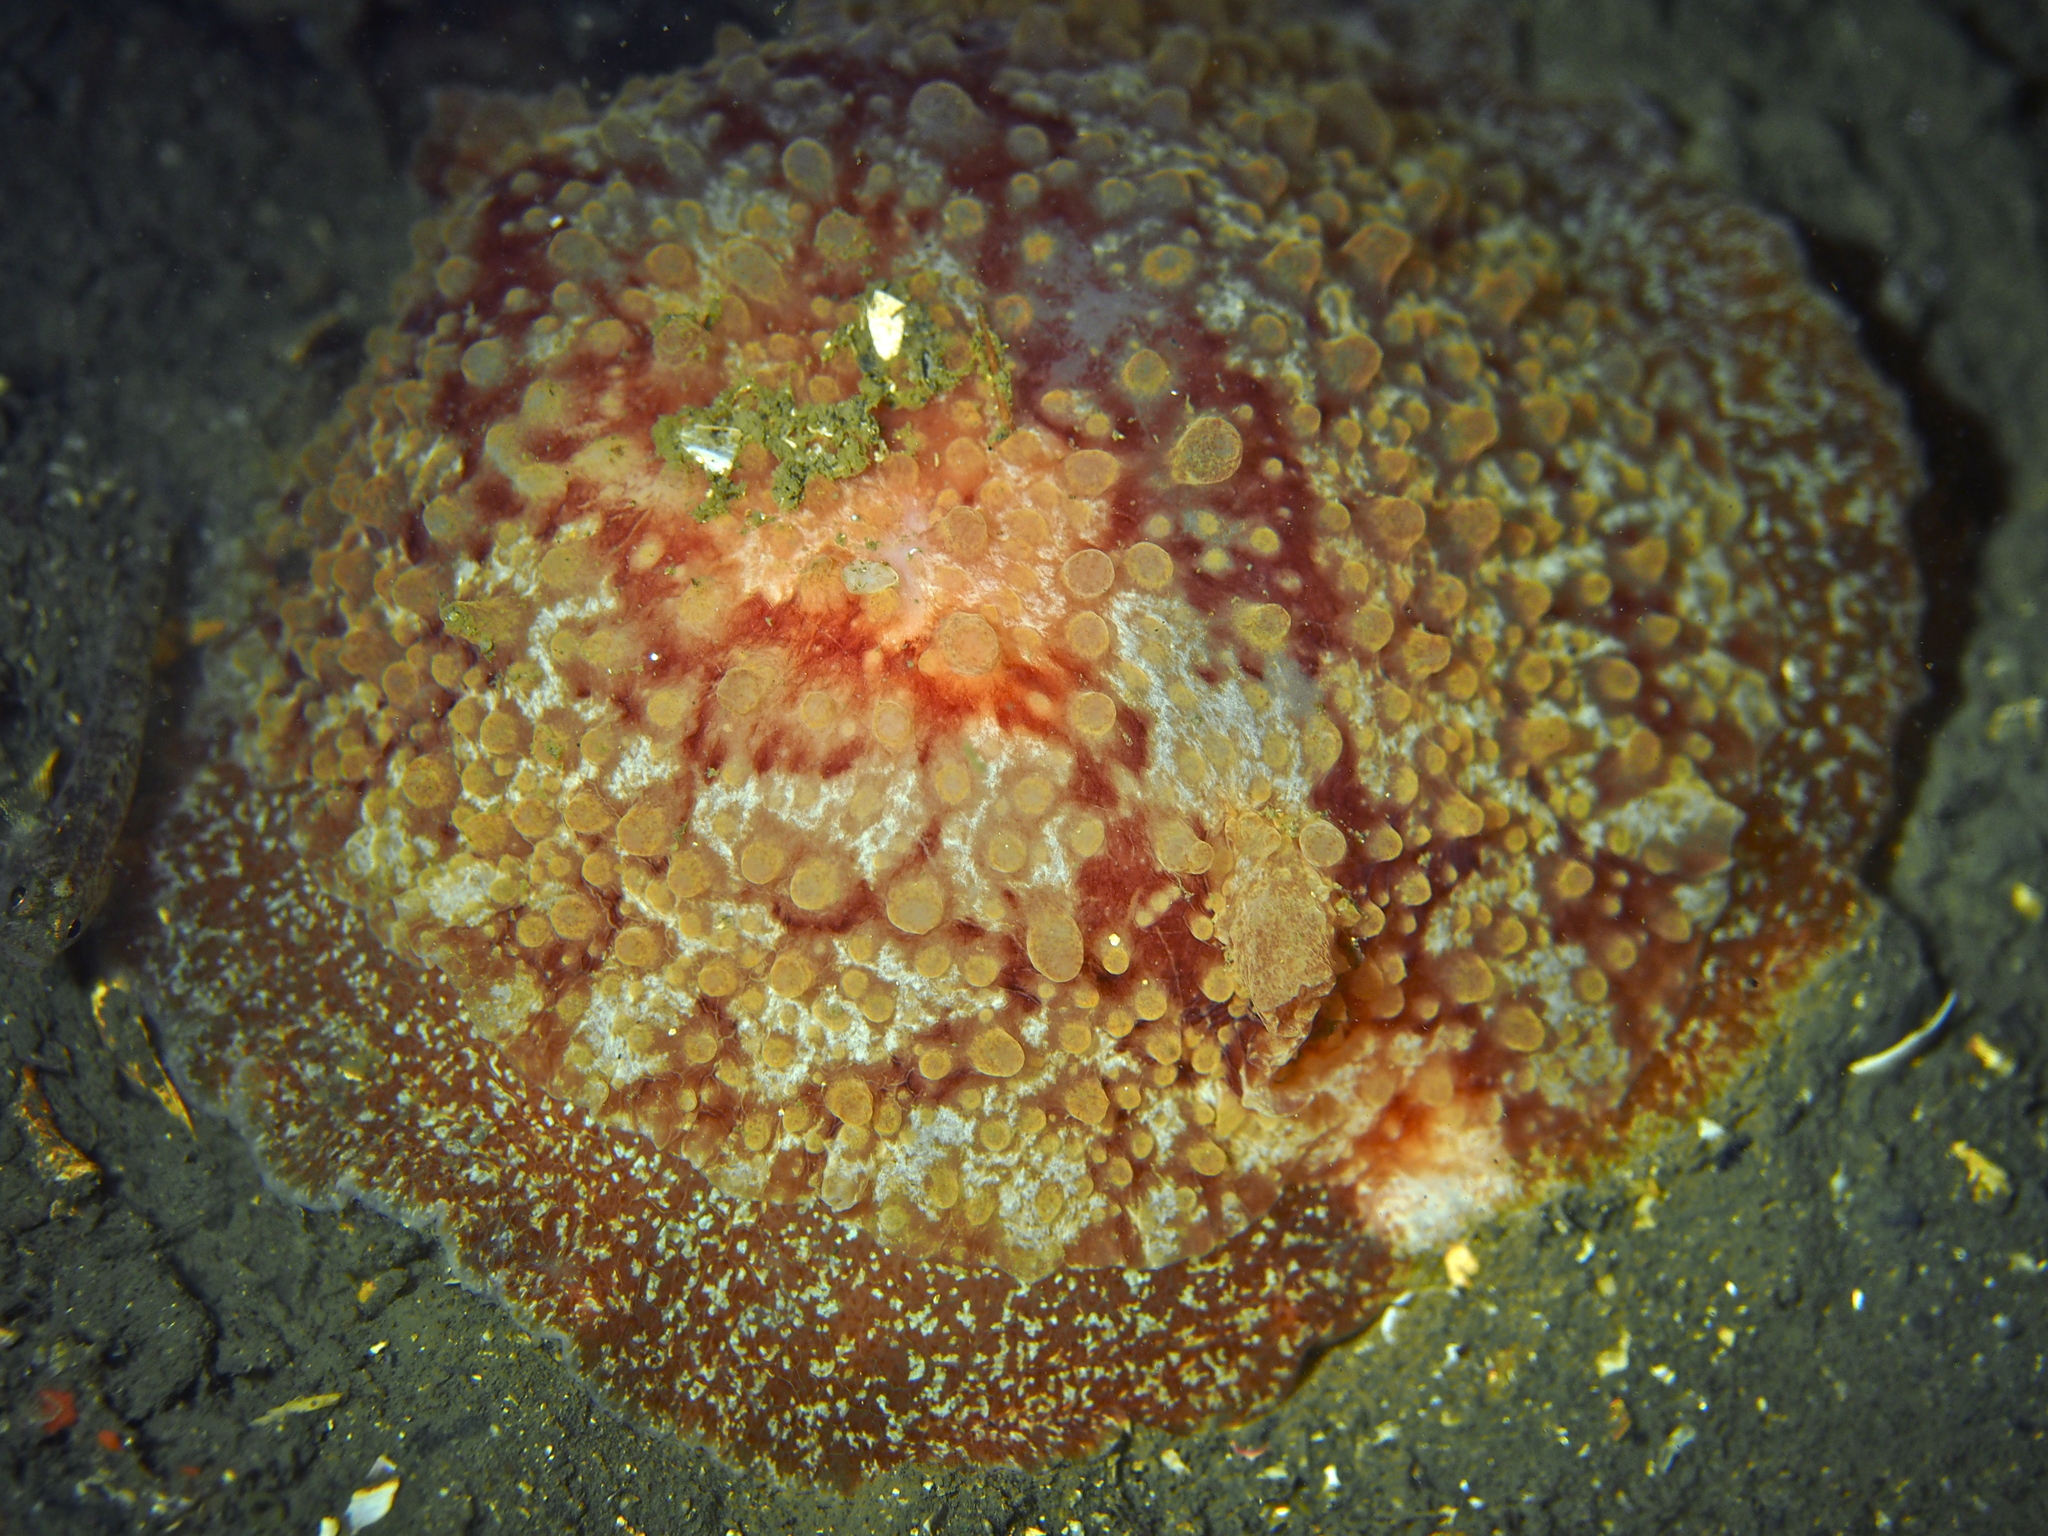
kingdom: Animalia
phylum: Mollusca
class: Gastropoda
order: Pleurobranchida
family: Pleurobranchidae
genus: Pleurobranchus
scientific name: Pleurobranchus membranaceus
